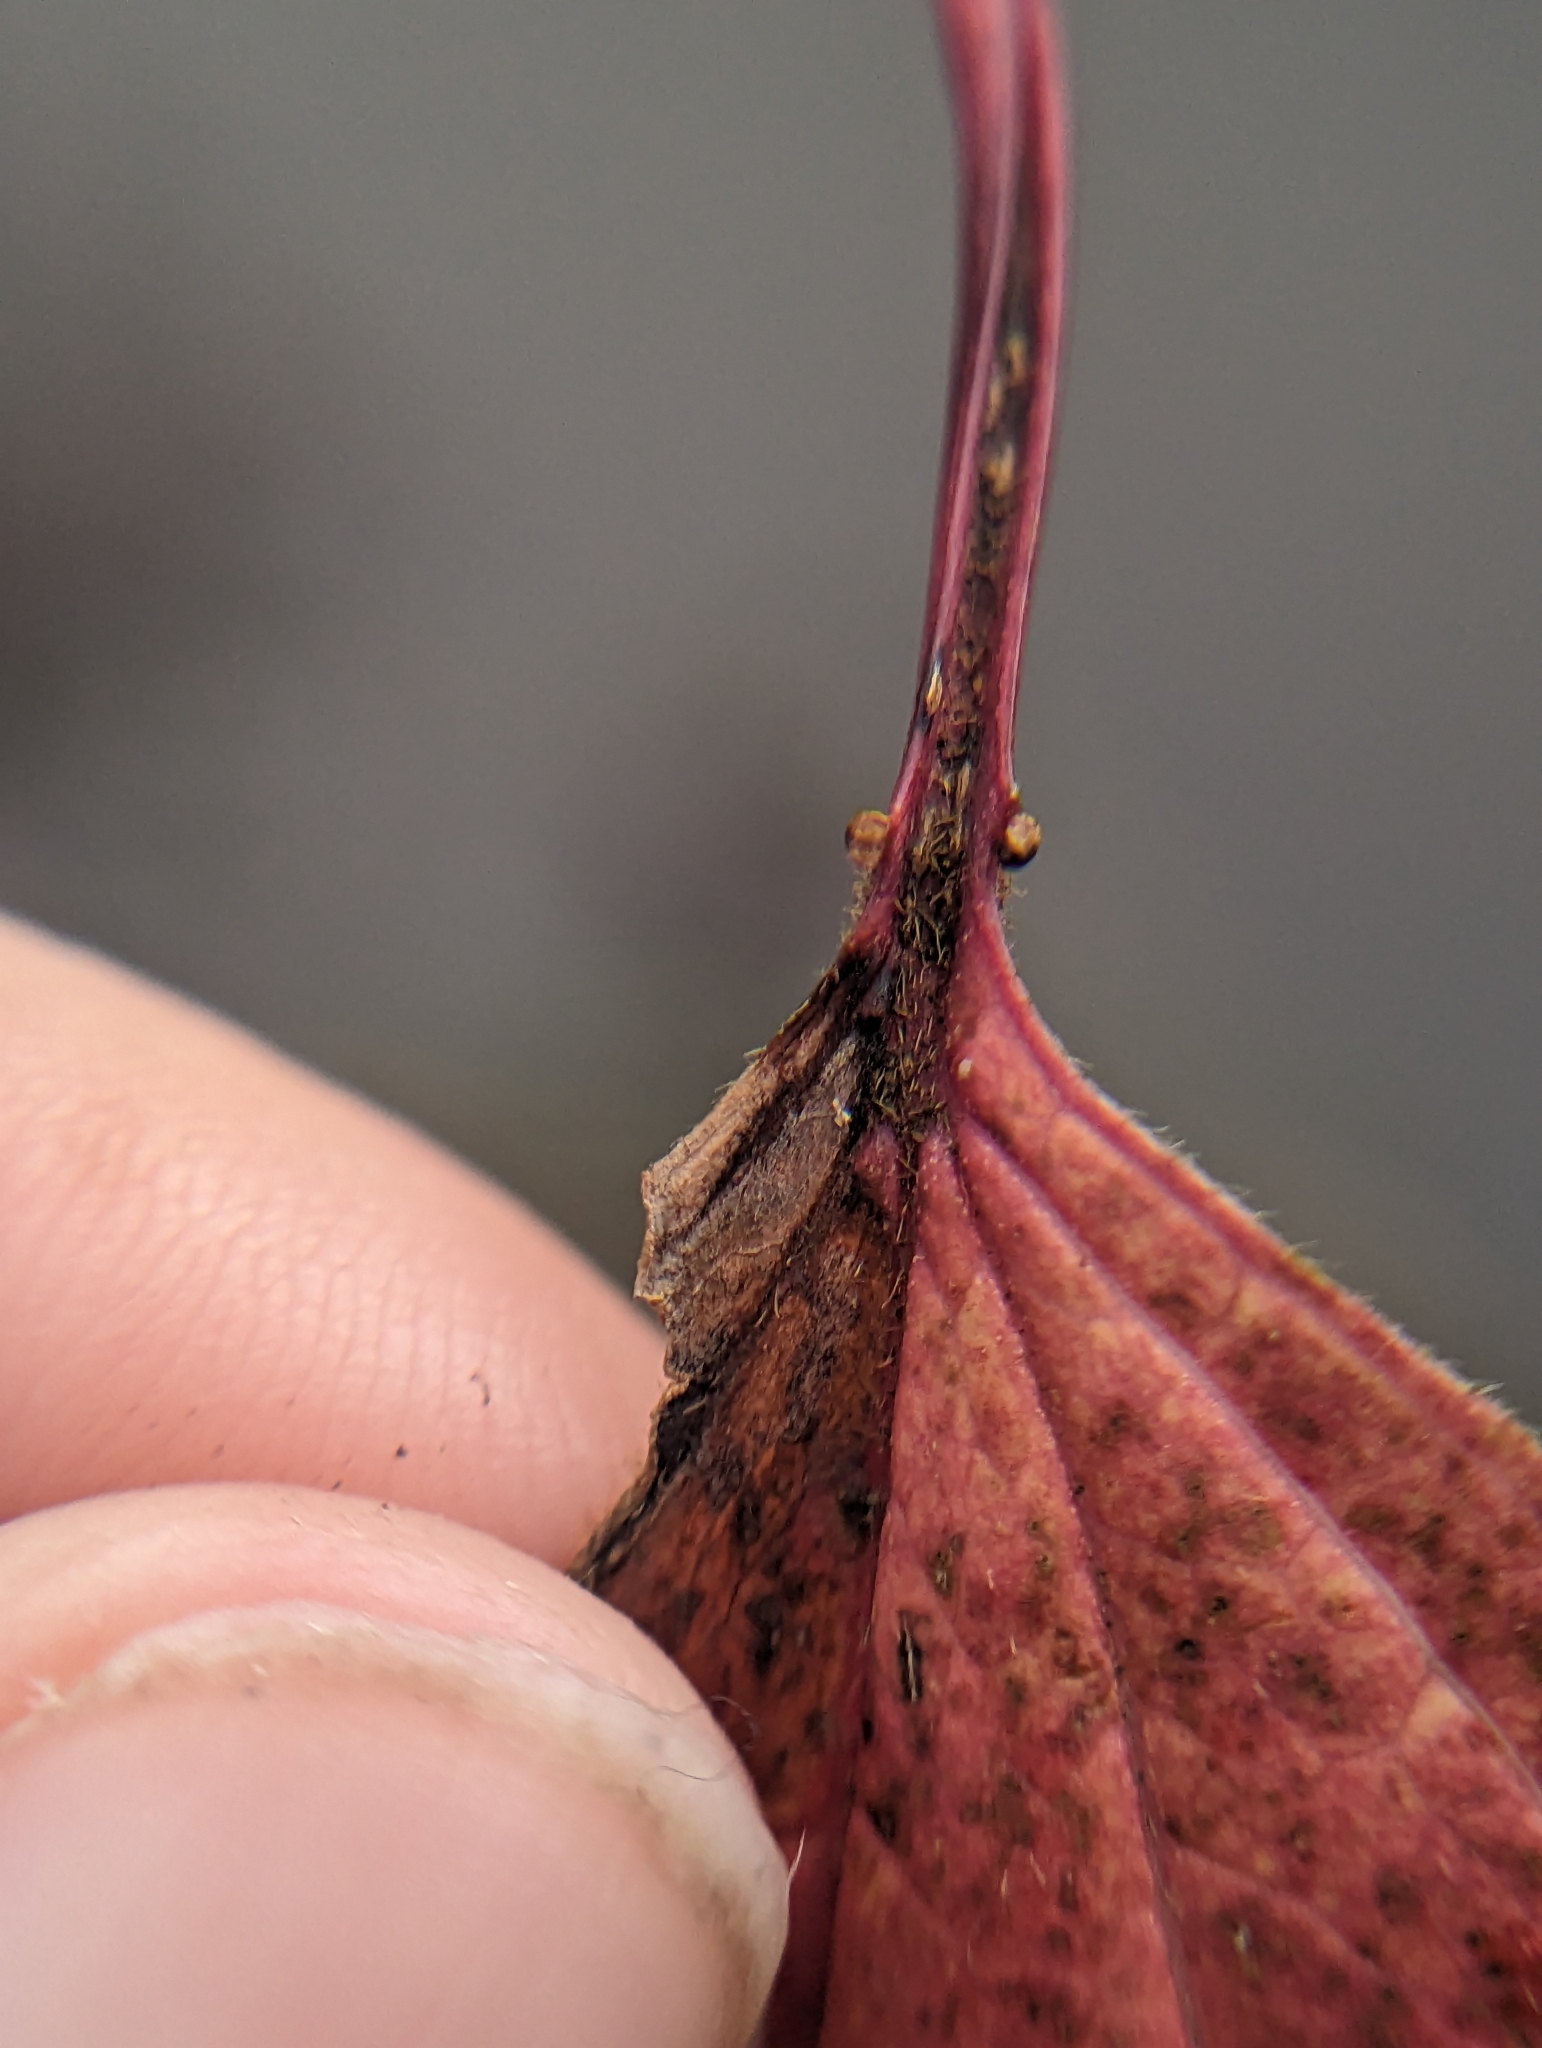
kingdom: Plantae
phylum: Tracheophyta
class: Magnoliopsida
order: Dipsacales
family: Viburnaceae
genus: Viburnum
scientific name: Viburnum trilobum
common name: American cranberrybush
